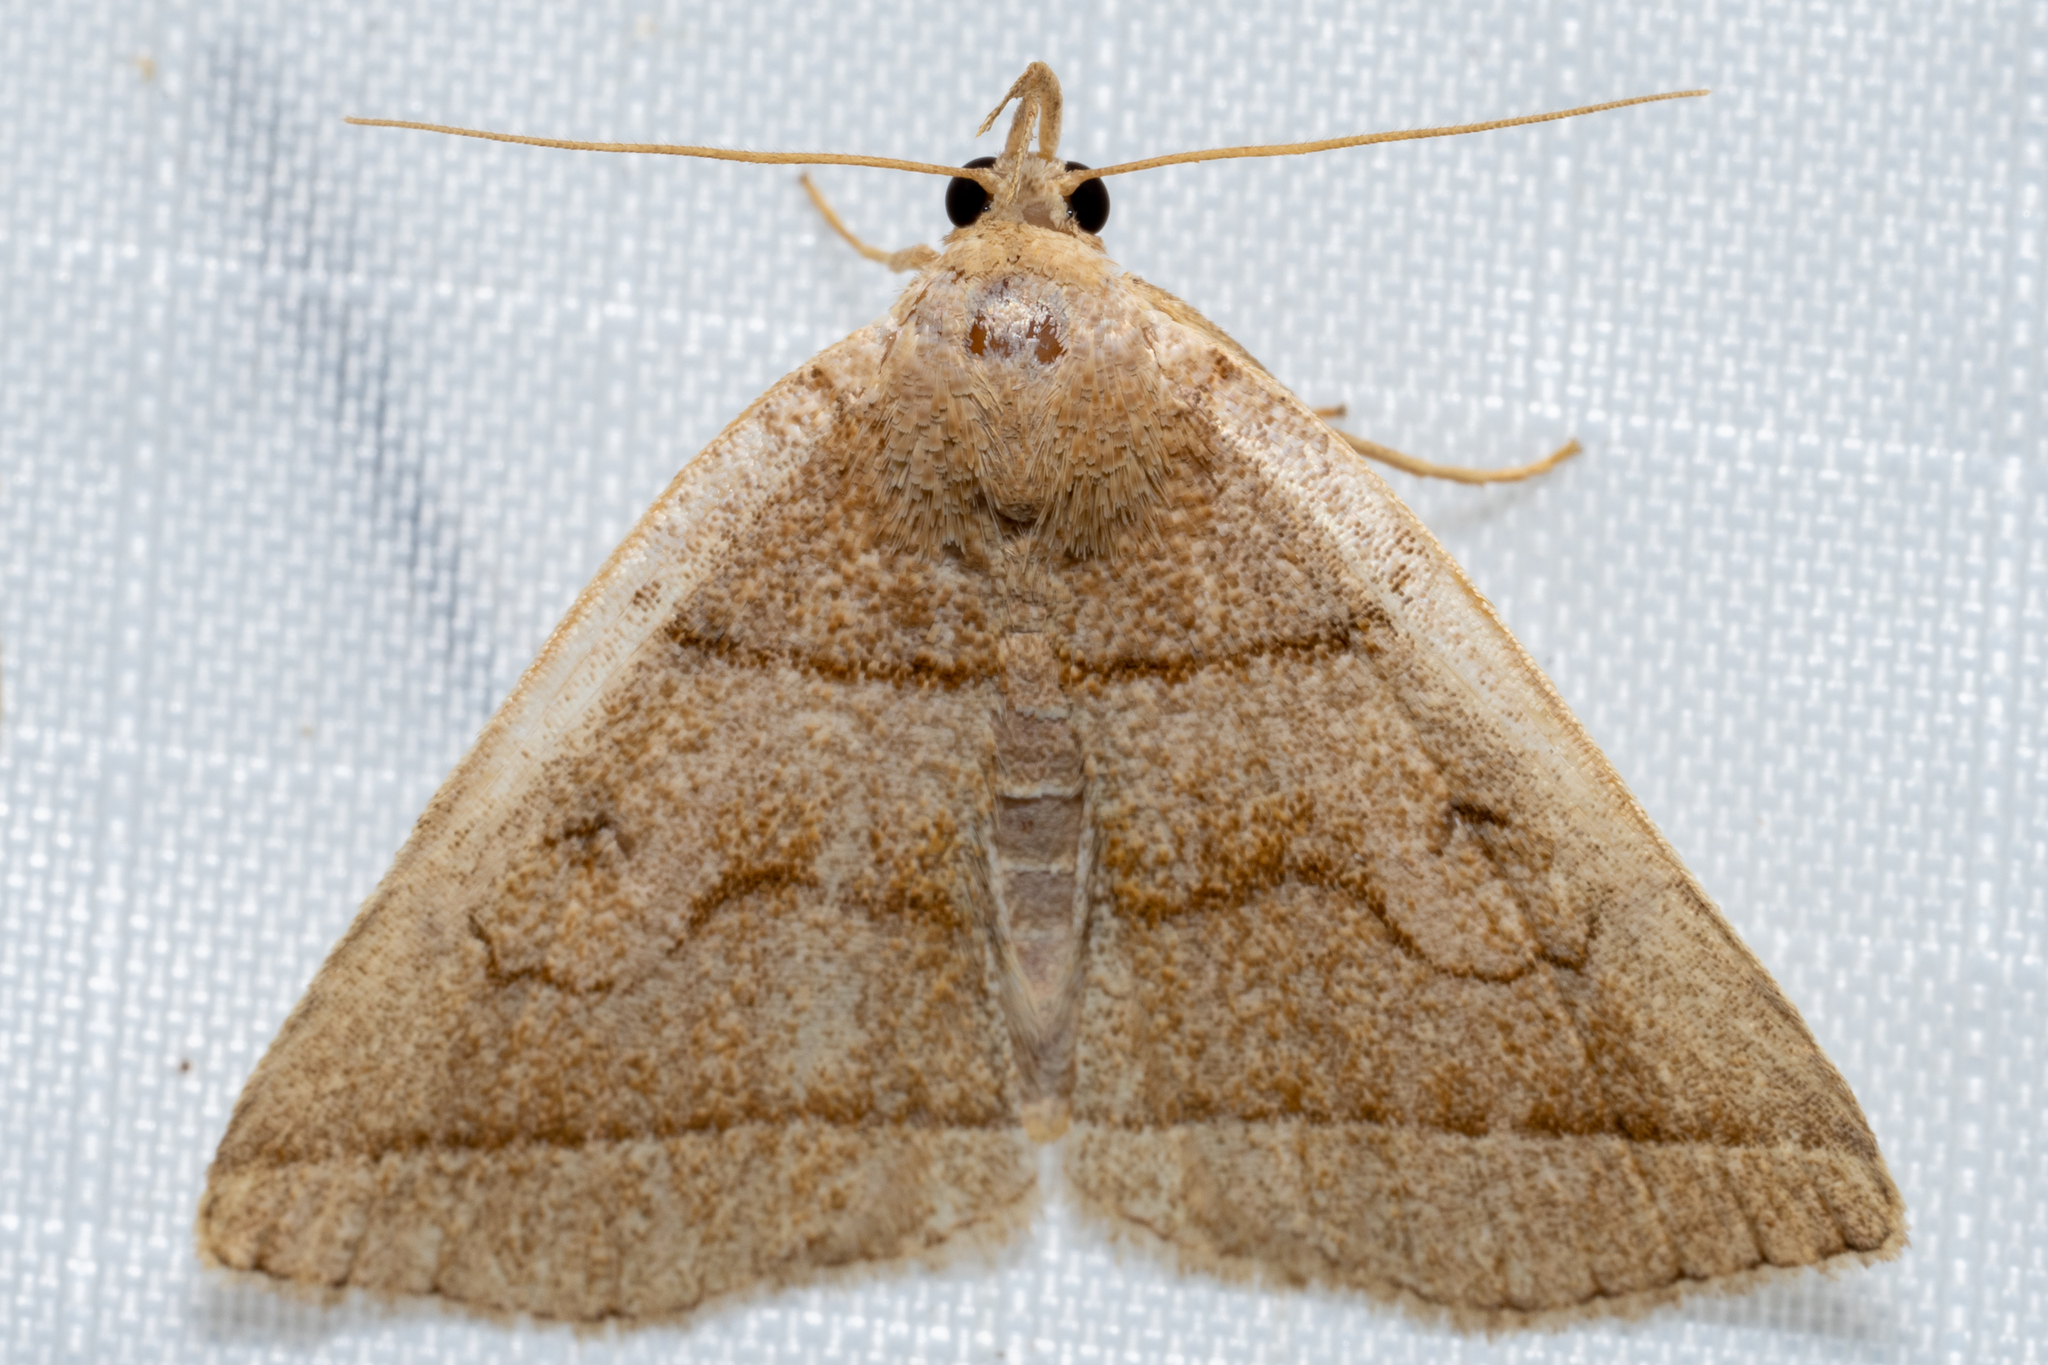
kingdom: Animalia
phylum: Arthropoda
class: Insecta
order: Lepidoptera
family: Erebidae
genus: Zanclognatha
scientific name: Zanclognatha cruralis
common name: Early fan-foot
